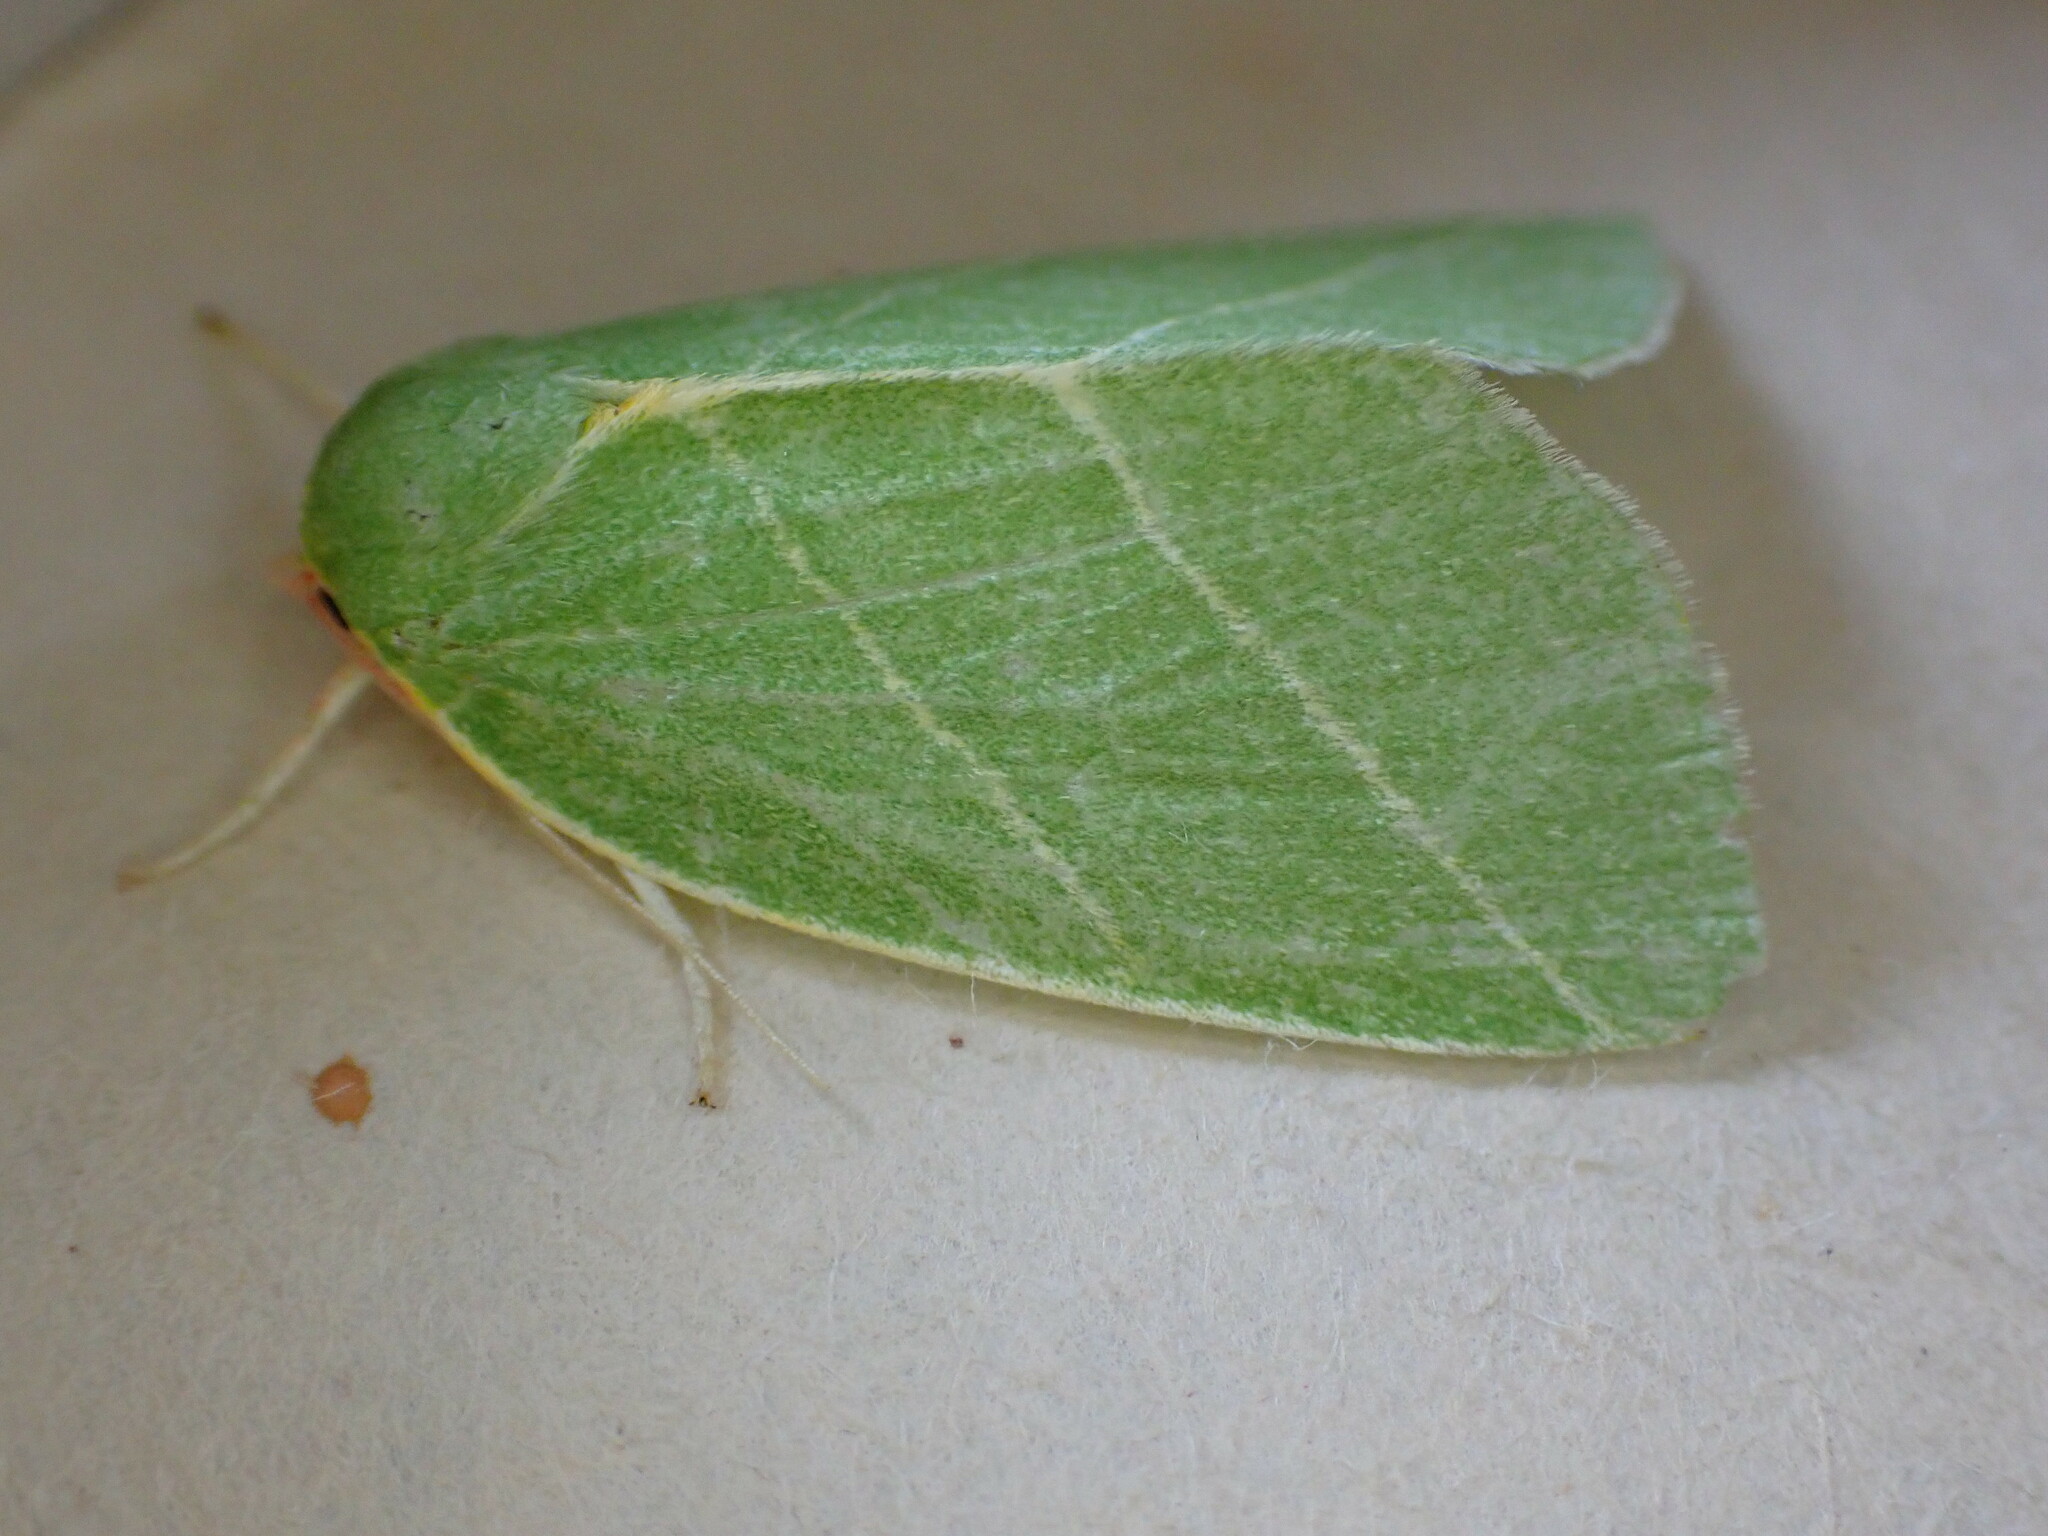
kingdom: Animalia
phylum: Arthropoda
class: Insecta
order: Lepidoptera
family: Nolidae
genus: Bena
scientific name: Bena bicolorana
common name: Scarce silver-lines
